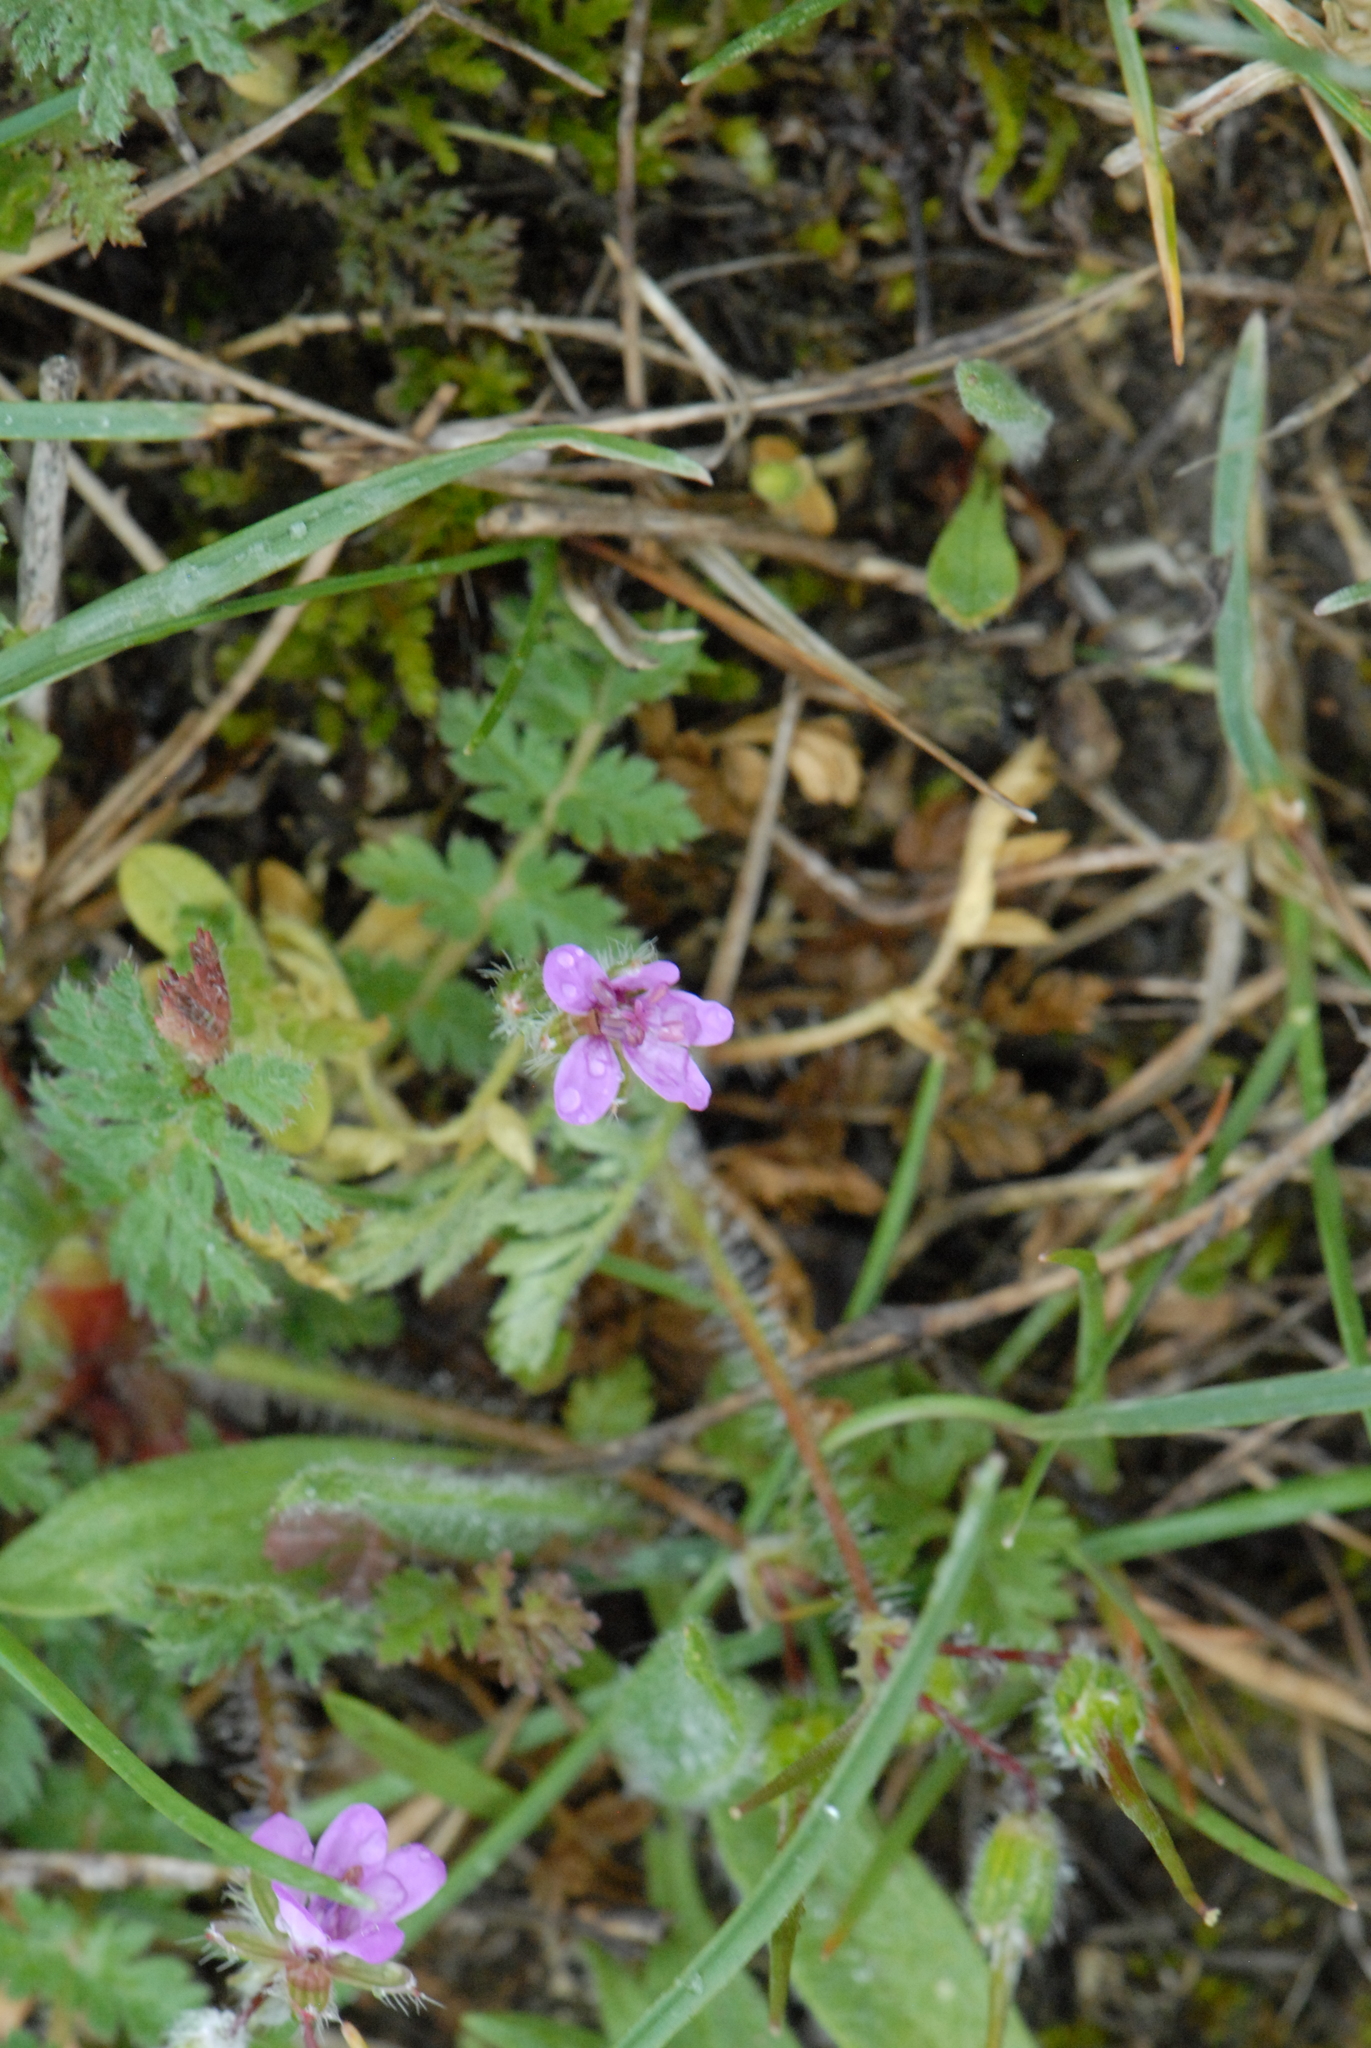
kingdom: Plantae
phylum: Tracheophyta
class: Magnoliopsida
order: Geraniales
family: Geraniaceae
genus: Erodium
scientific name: Erodium cicutarium
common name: Common stork's-bill
